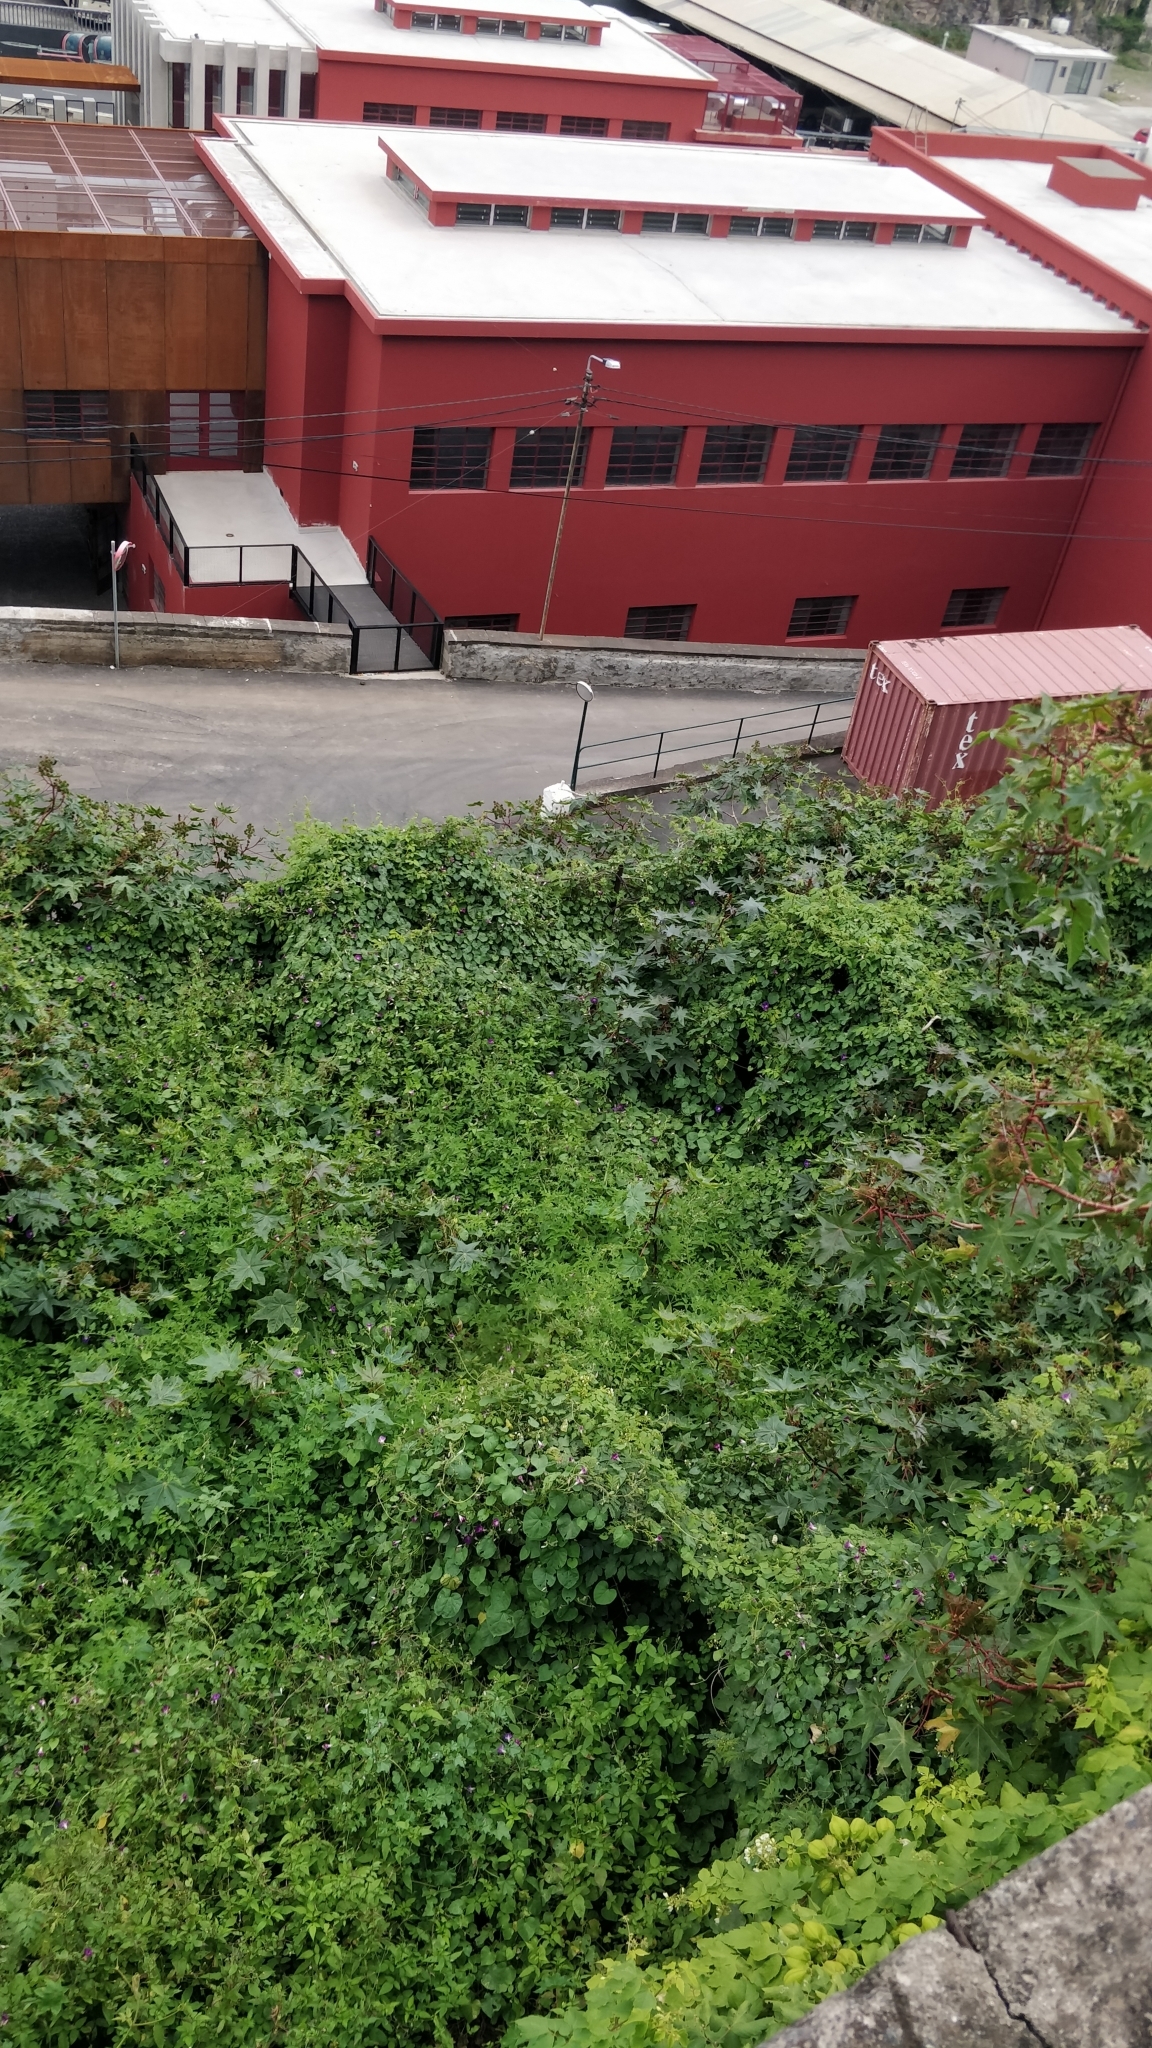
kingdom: Plantae
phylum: Tracheophyta
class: Magnoliopsida
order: Malpighiales
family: Euphorbiaceae
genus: Ricinus
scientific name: Ricinus communis
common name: Castor-oil-plant
